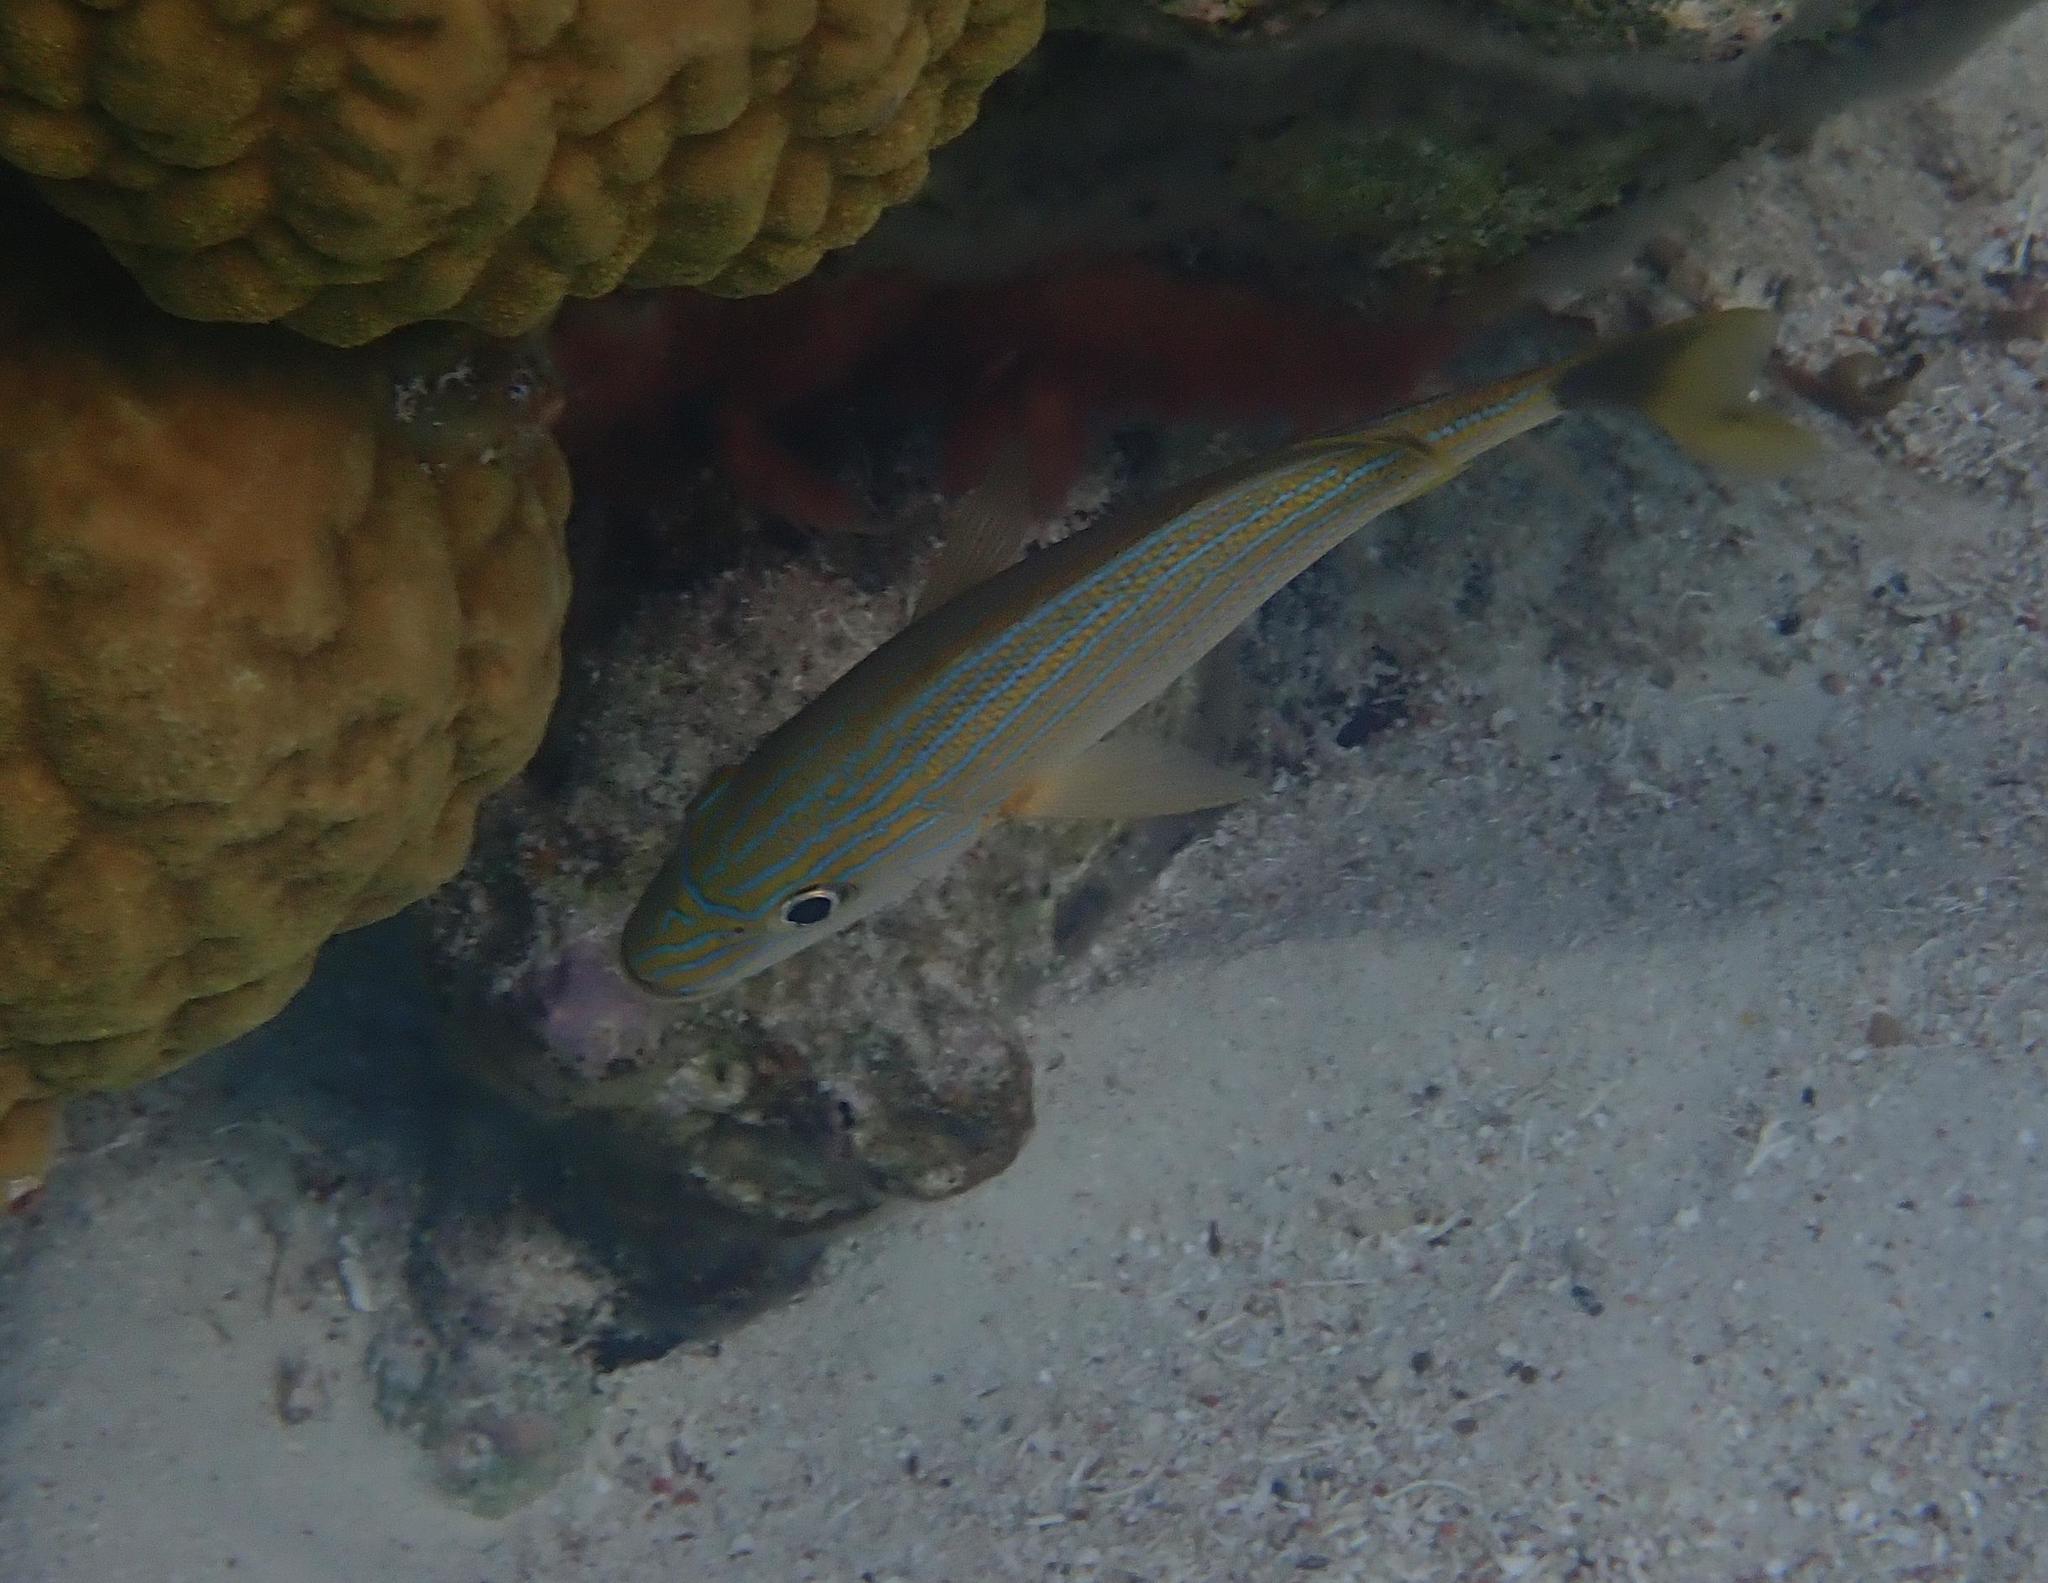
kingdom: Animalia
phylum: Chordata
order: Perciformes
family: Haemulidae
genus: Haemulon
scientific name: Haemulon sciurus
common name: Bluestriped grunt
